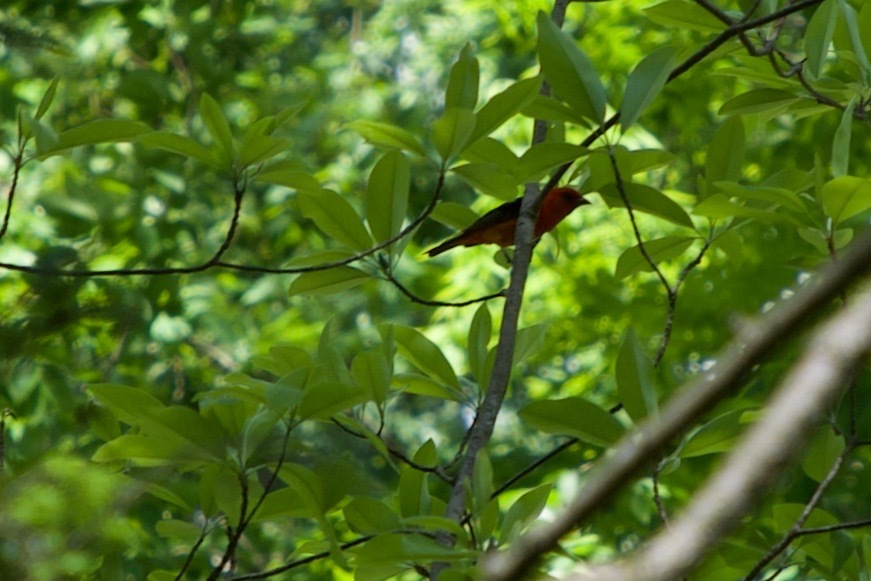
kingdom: Animalia
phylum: Chordata
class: Aves
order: Passeriformes
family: Cardinalidae
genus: Piranga
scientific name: Piranga olivacea
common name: Scarlet tanager
